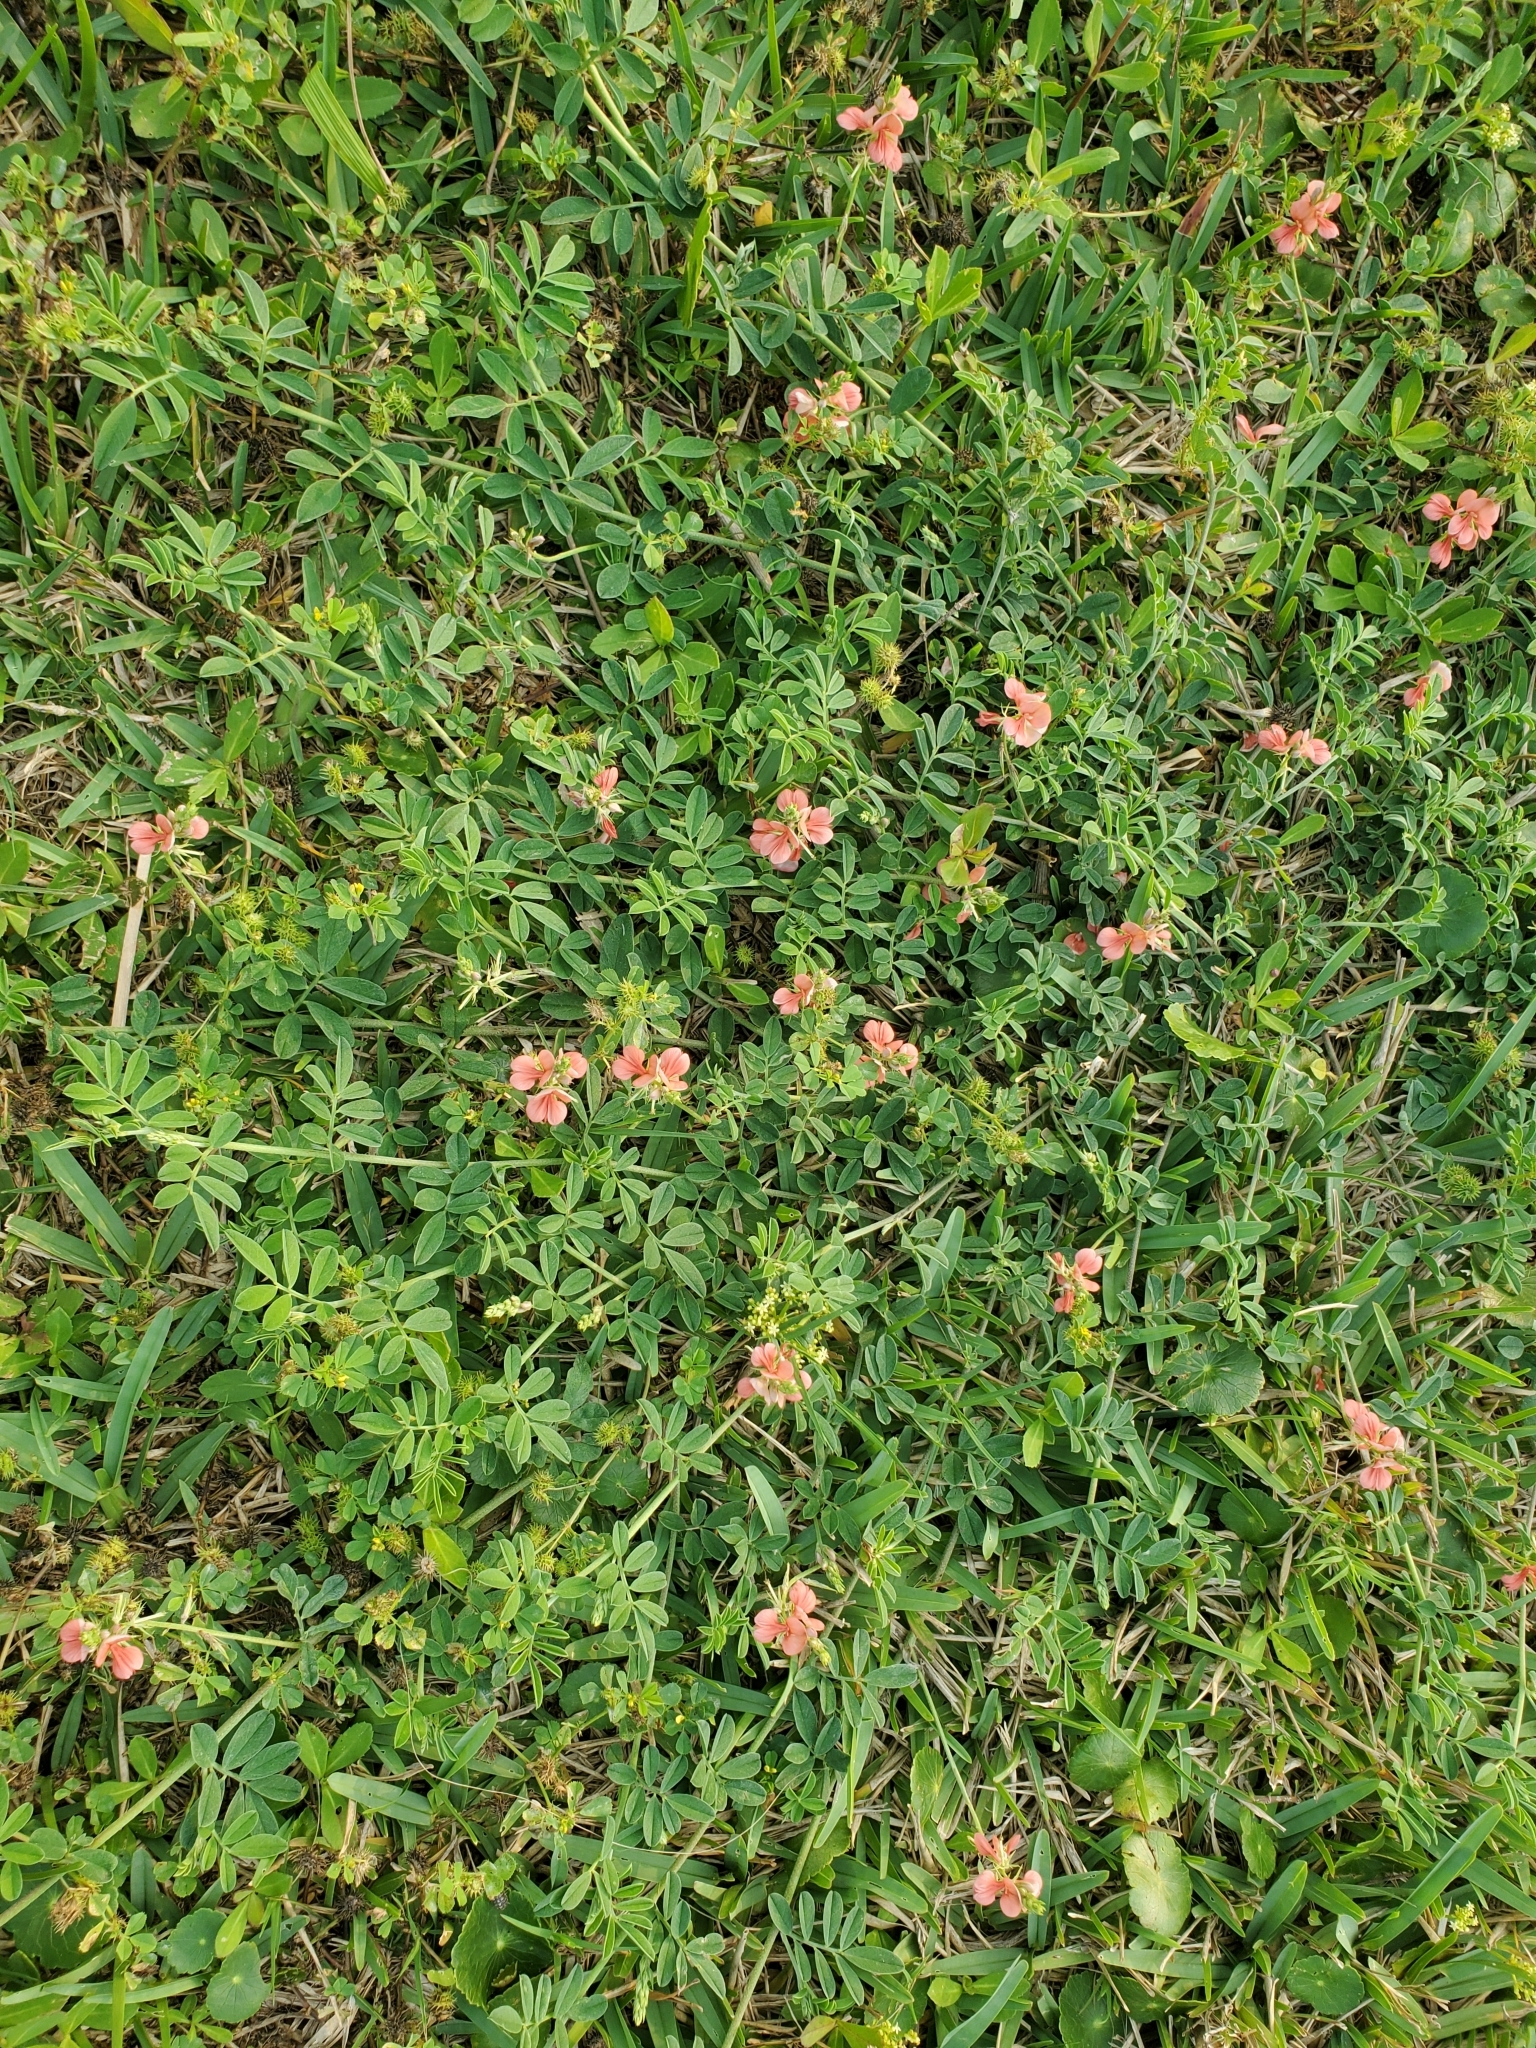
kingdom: Plantae
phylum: Tracheophyta
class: Magnoliopsida
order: Fabales
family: Fabaceae
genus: Indigofera
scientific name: Indigofera miniata
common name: Coast indigo
